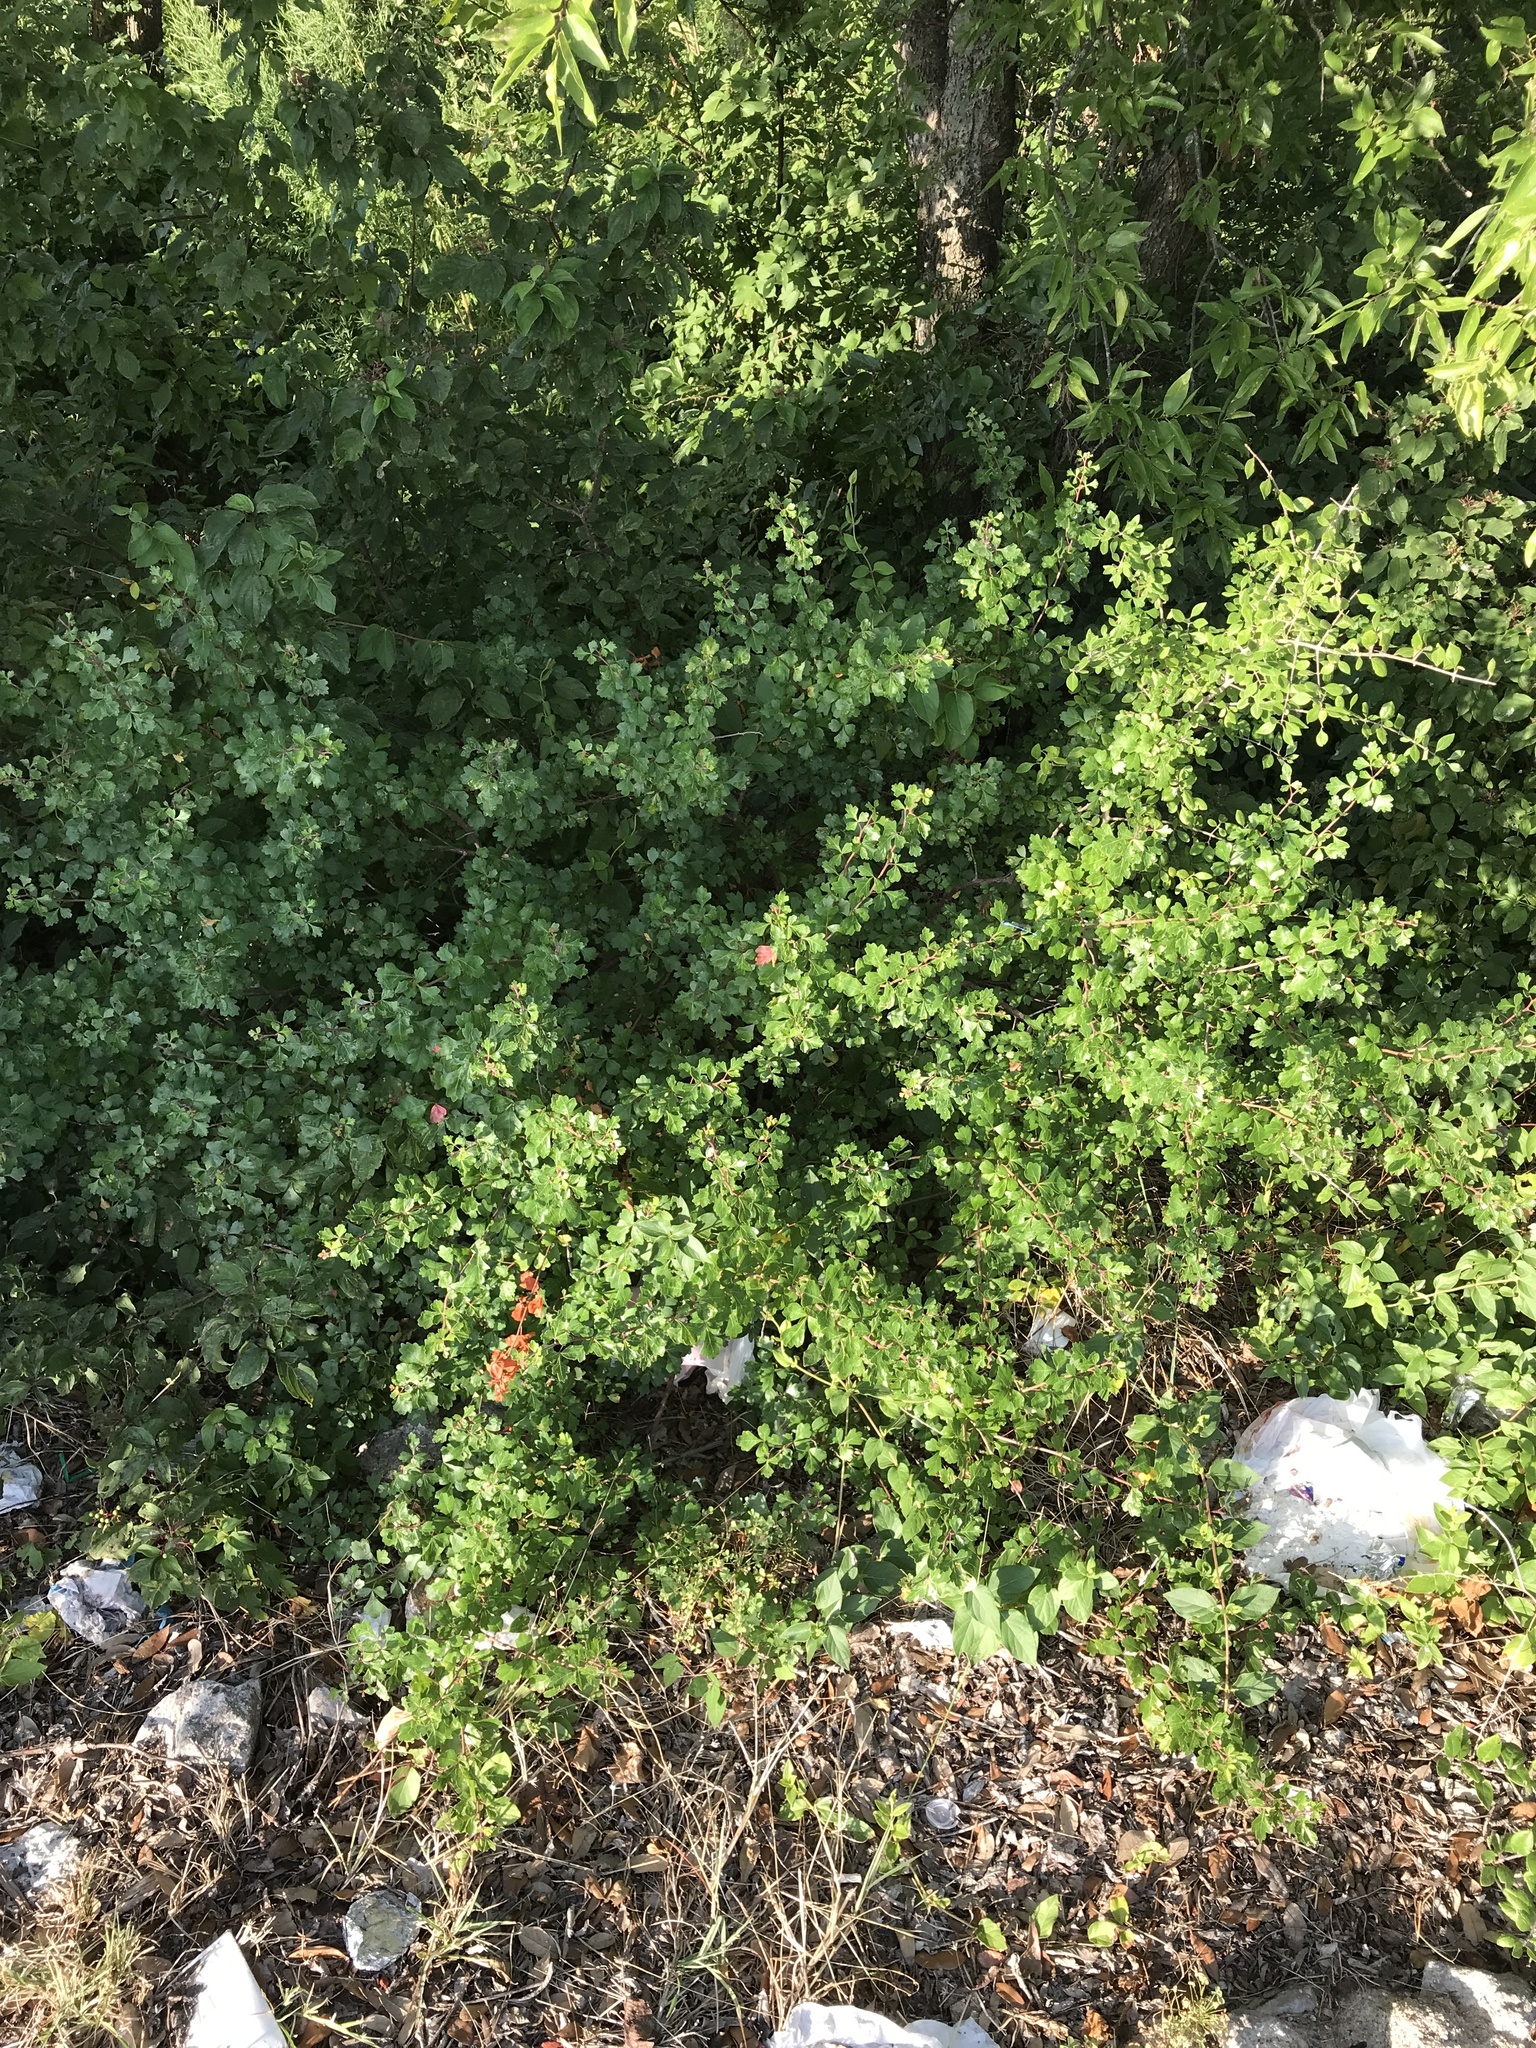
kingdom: Plantae
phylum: Tracheophyta
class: Magnoliopsida
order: Sapindales
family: Anacardiaceae
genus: Rhus
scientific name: Rhus aromatica
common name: Aromatic sumac
